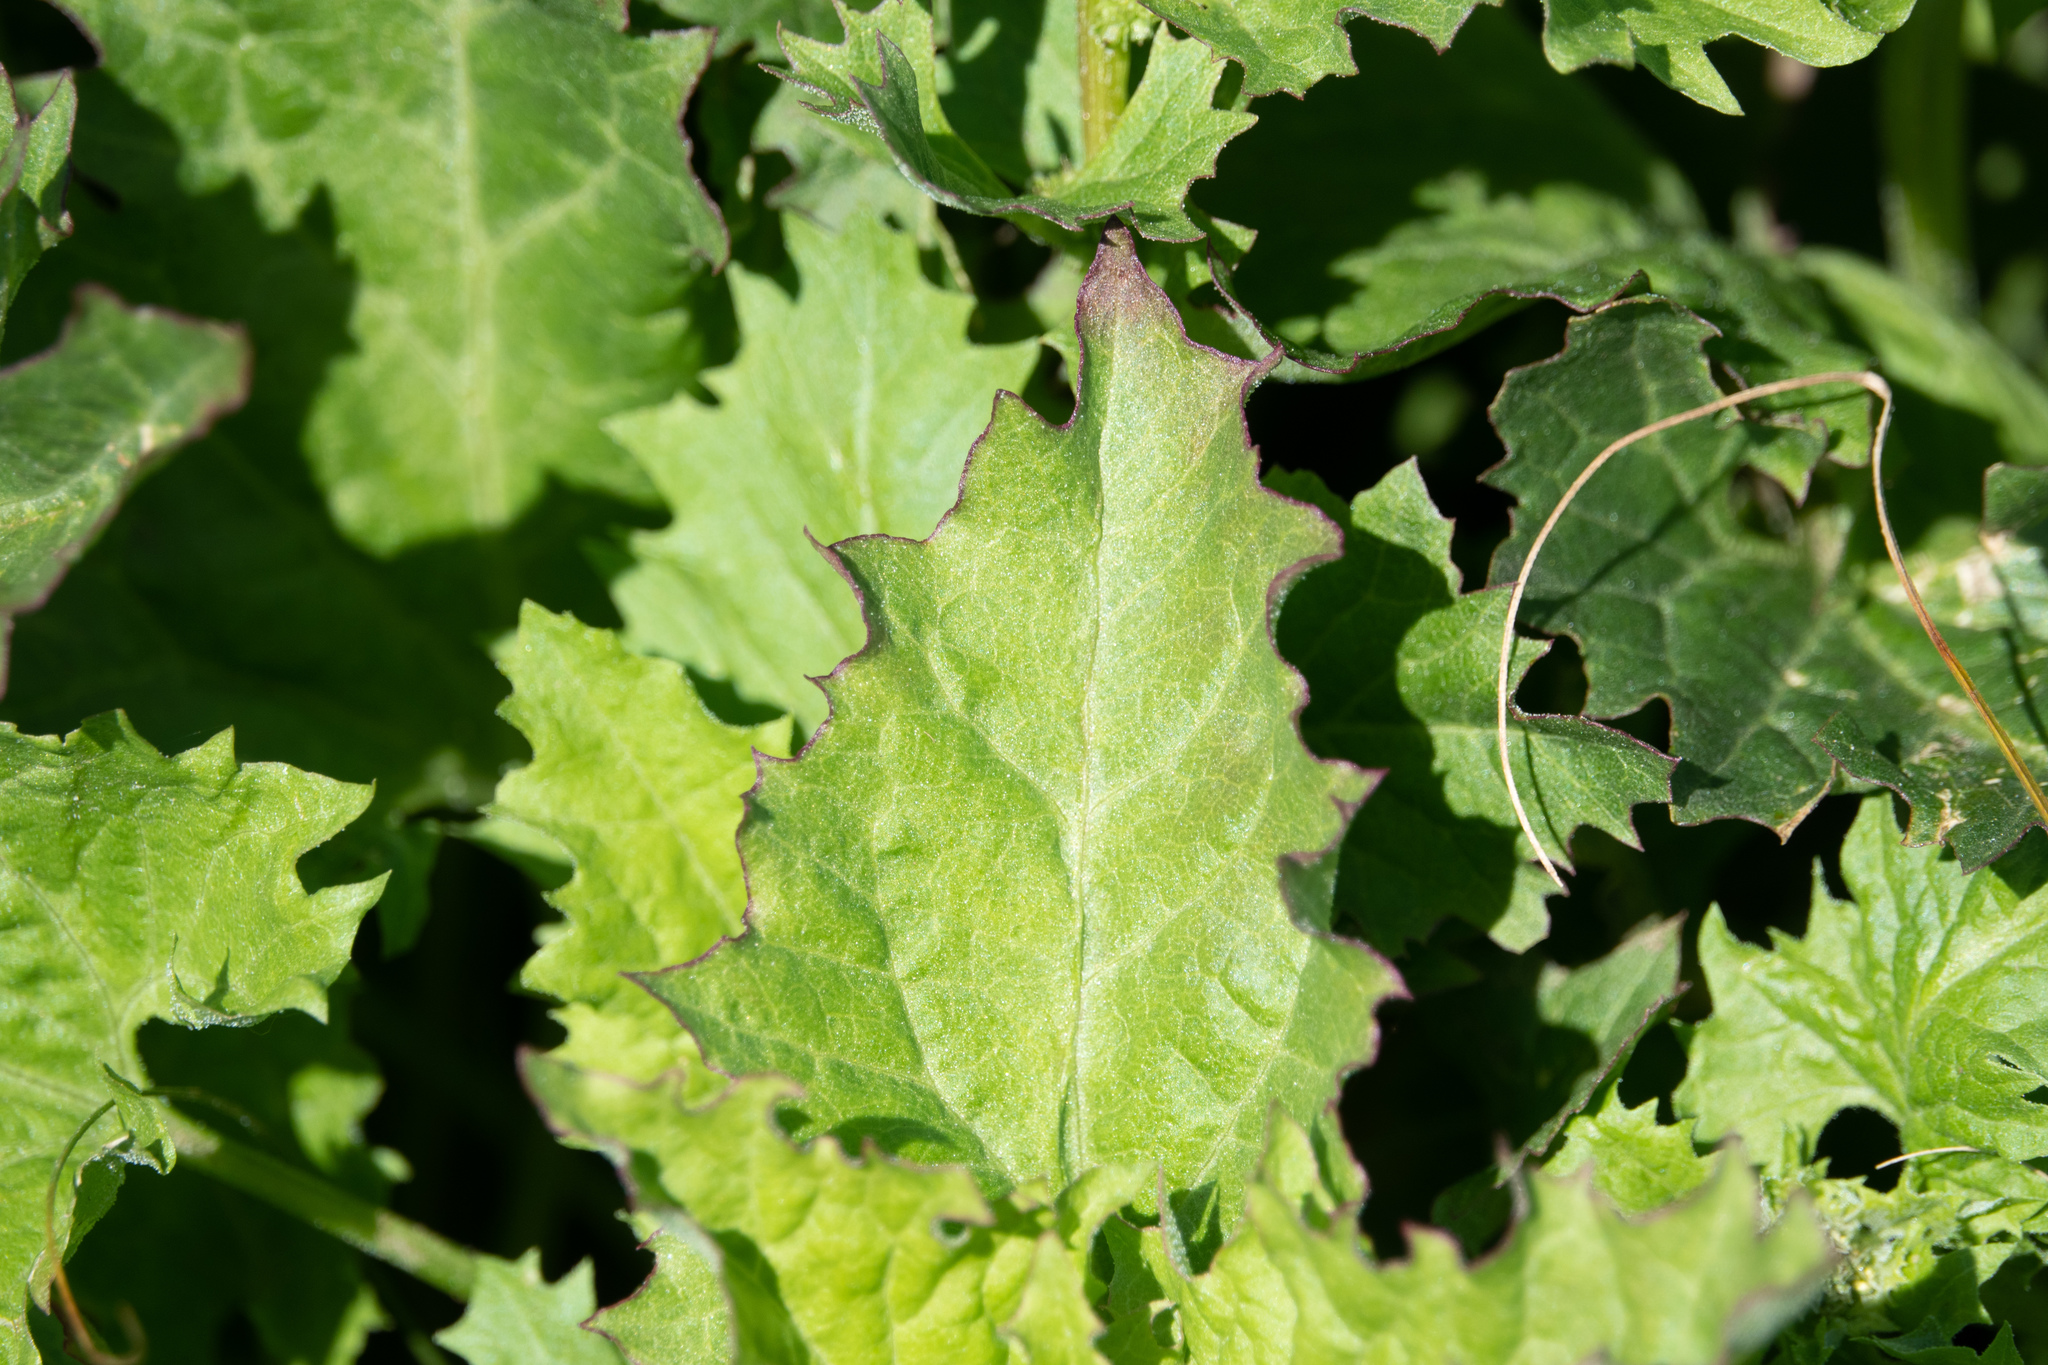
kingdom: Plantae
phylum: Tracheophyta
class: Magnoliopsida
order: Caryophyllales
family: Amaranthaceae
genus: Blitum
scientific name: Blitum californicum
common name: California goosefoot
